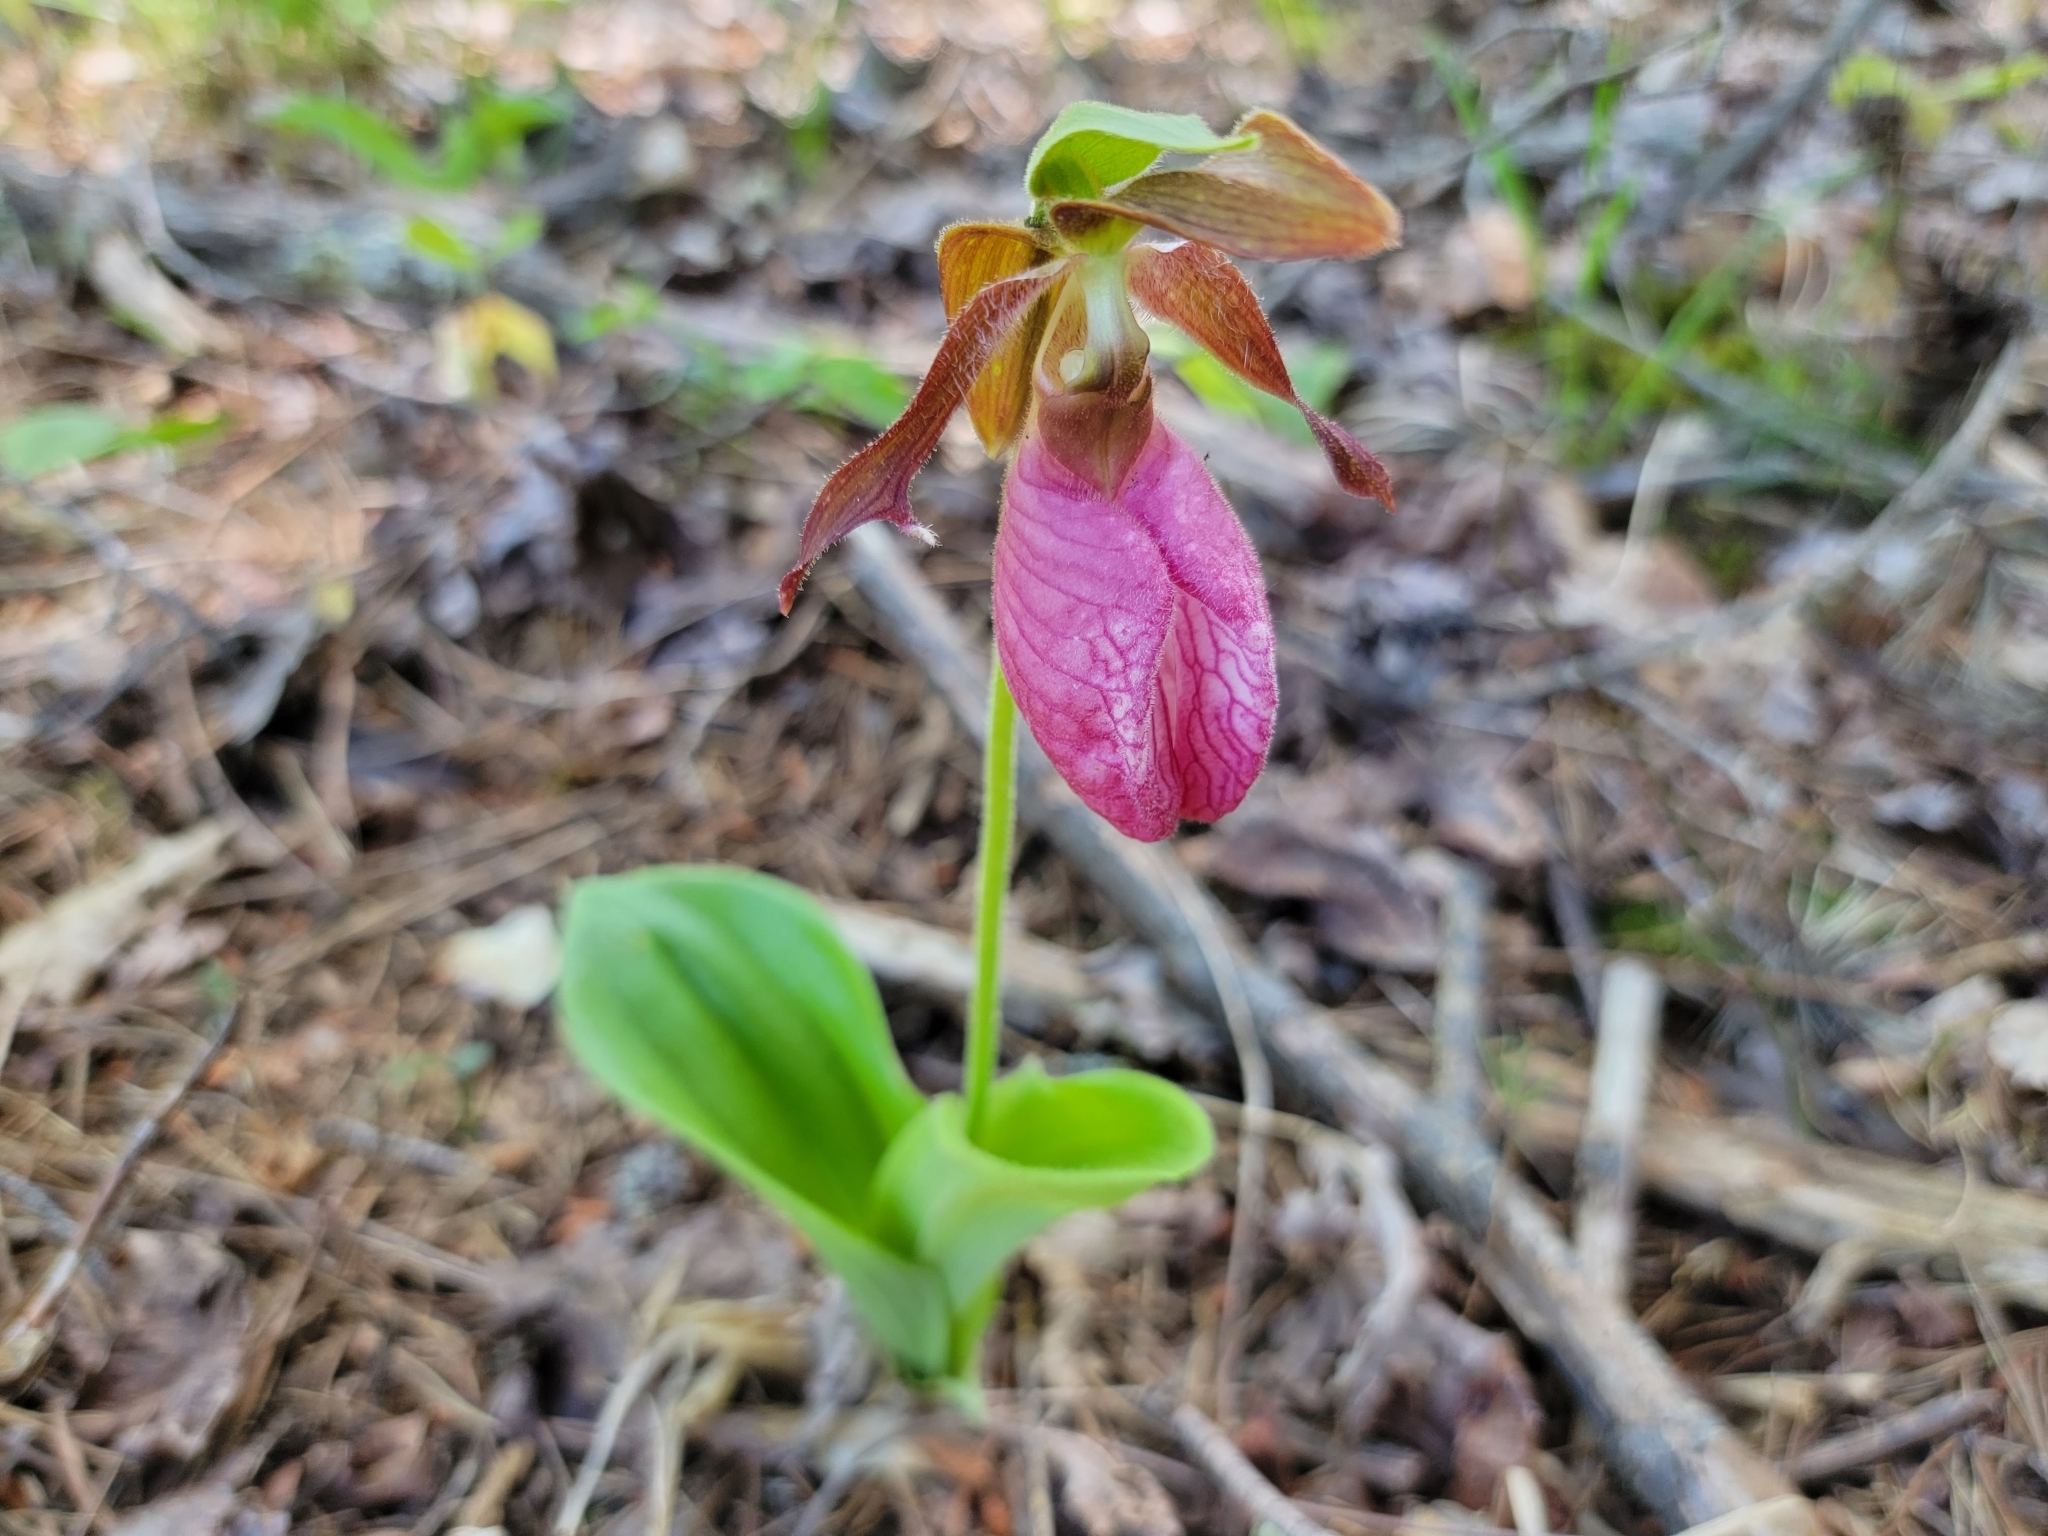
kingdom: Plantae
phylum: Tracheophyta
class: Liliopsida
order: Asparagales
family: Orchidaceae
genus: Cypripedium
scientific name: Cypripedium acaule
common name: Pink lady's-slipper
